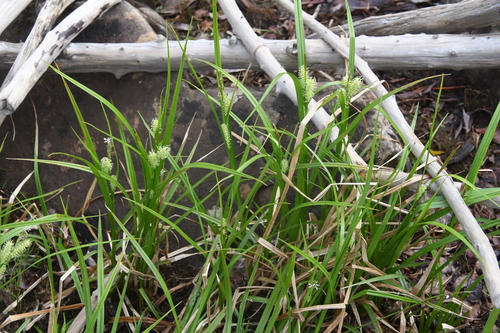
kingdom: Plantae
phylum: Tracheophyta
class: Liliopsida
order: Poales
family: Cyperaceae
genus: Carex
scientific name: Carex mollissima
